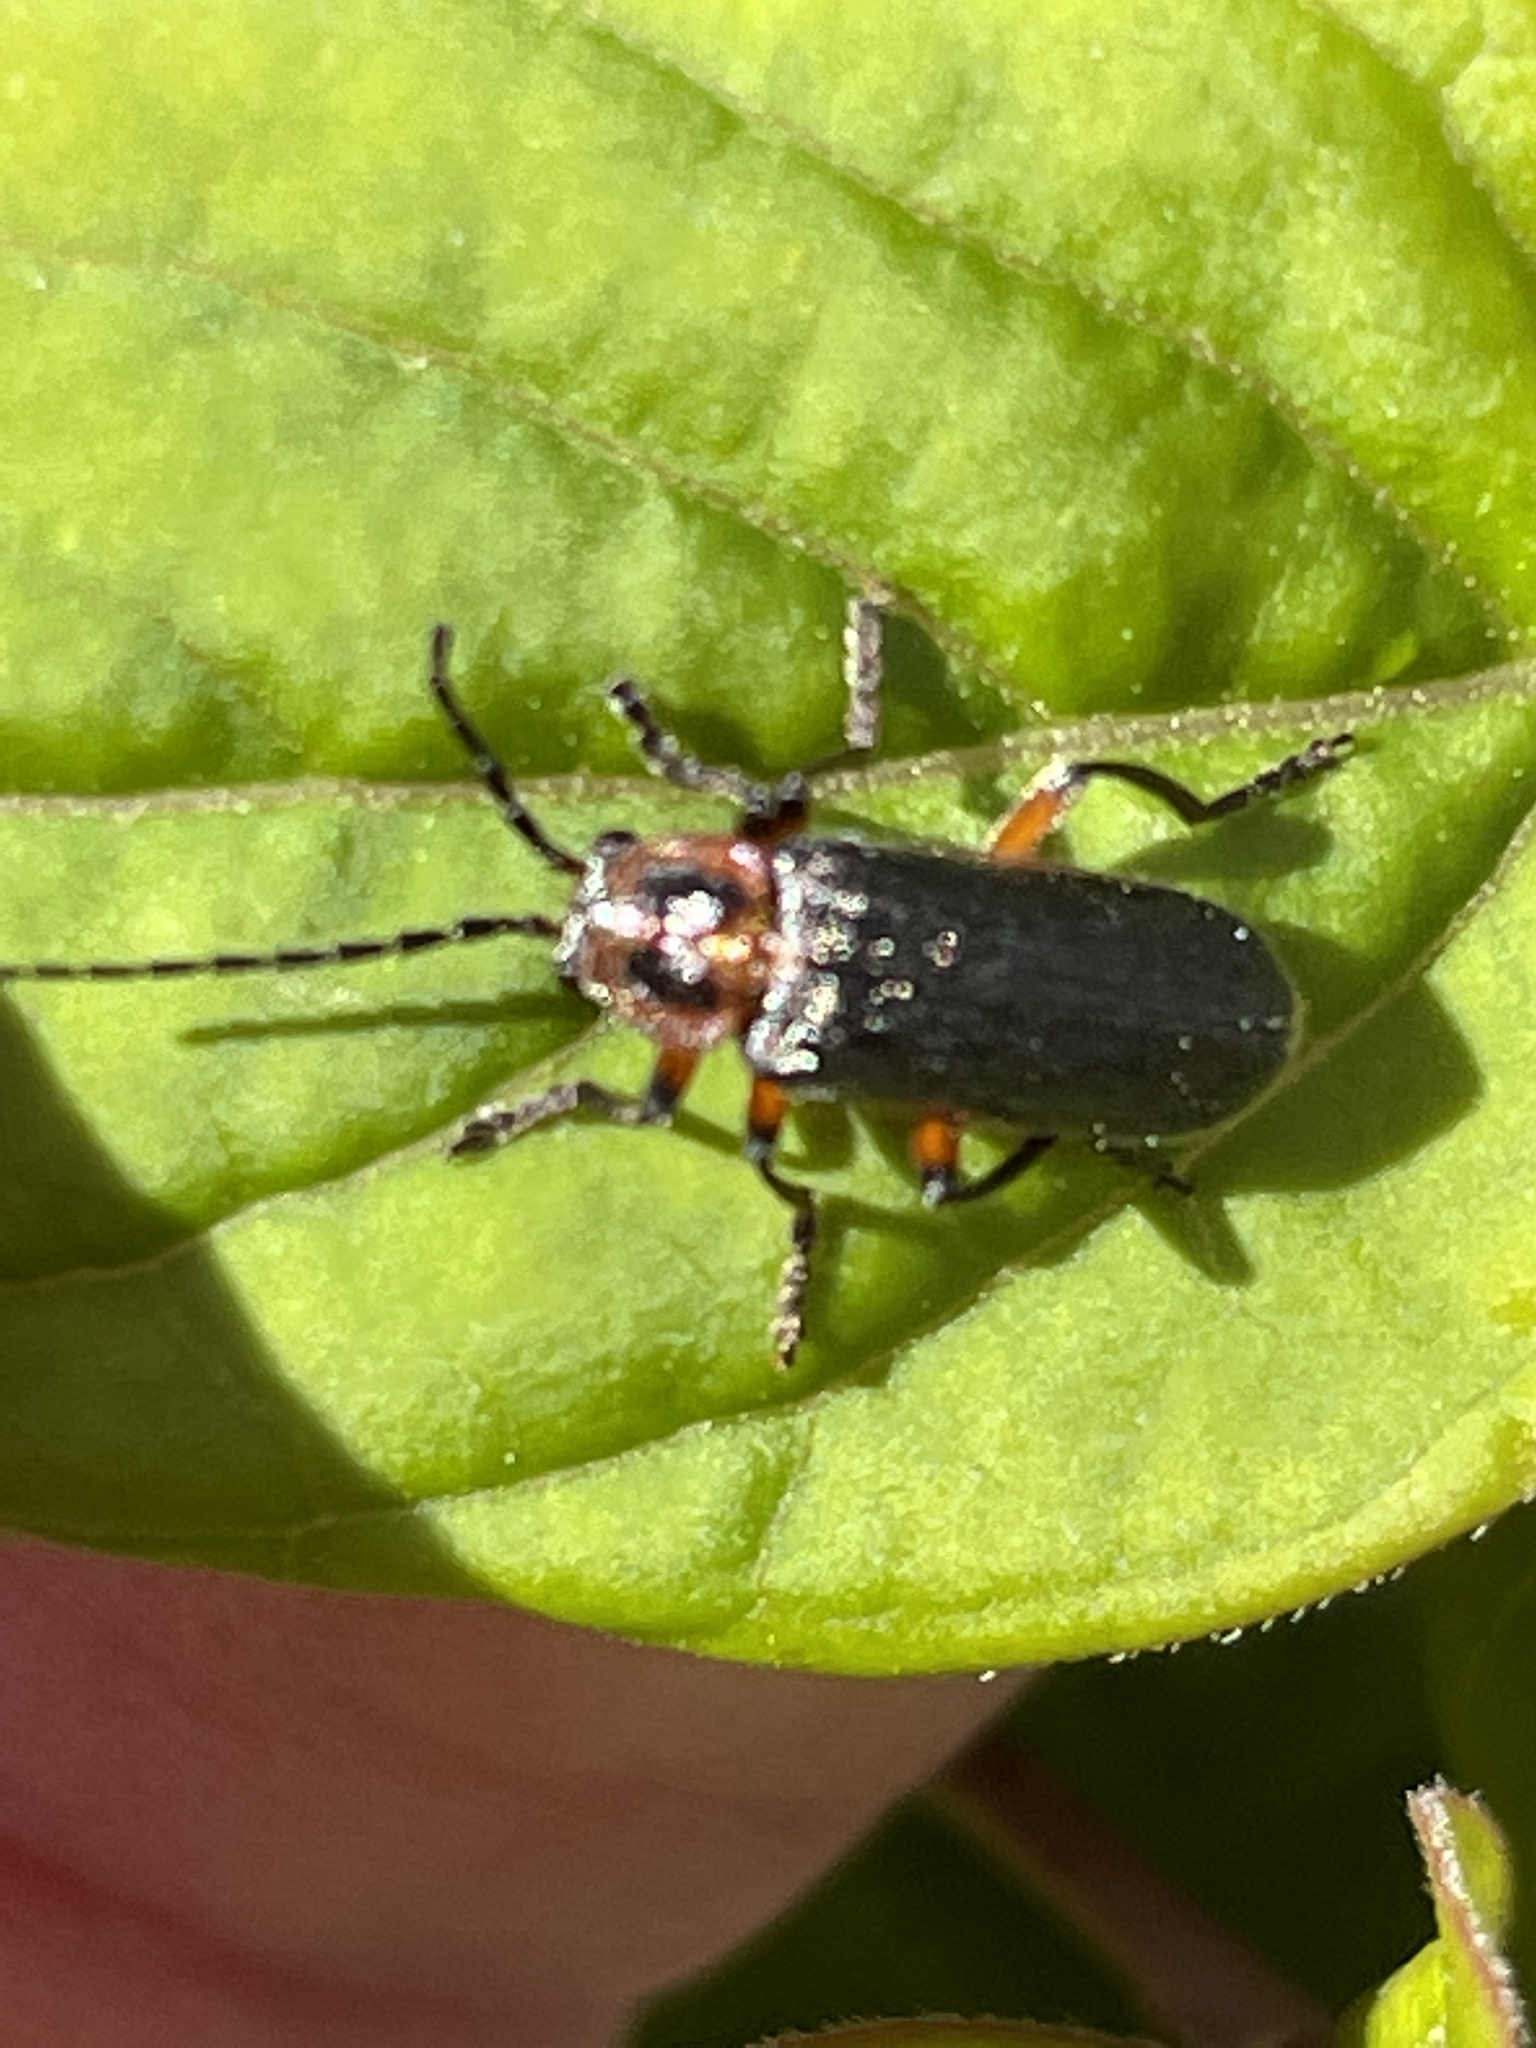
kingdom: Animalia
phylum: Arthropoda
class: Insecta
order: Coleoptera
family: Cantharidae
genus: Atalantycha
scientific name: Atalantycha bilineata
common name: Two-lined leatherwing
